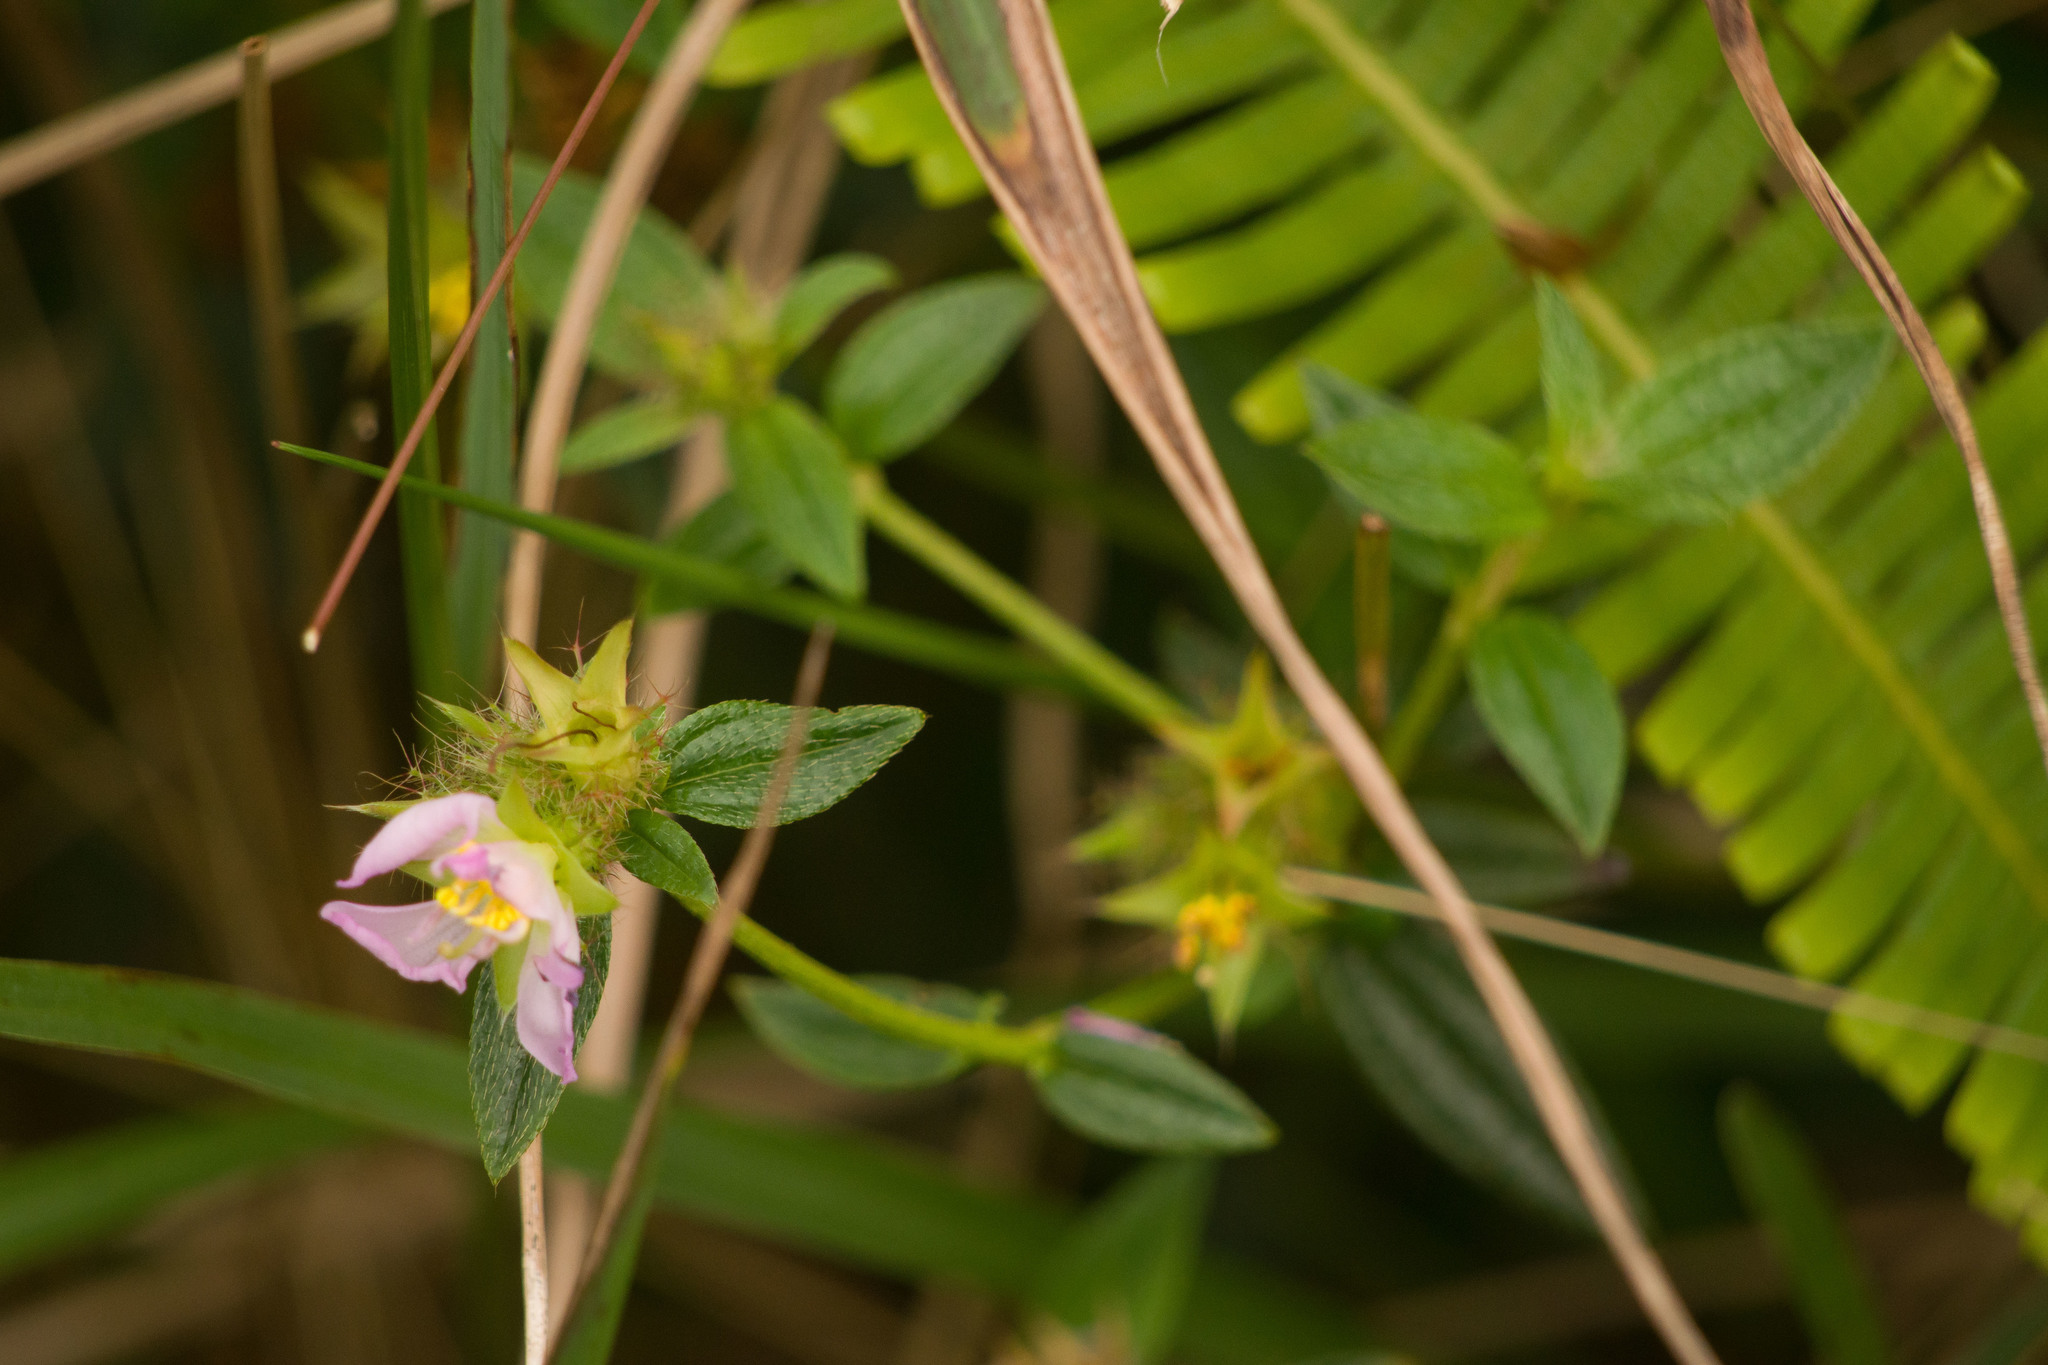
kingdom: Plantae
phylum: Tracheophyta
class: Magnoliopsida
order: Myrtales
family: Melastomataceae
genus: Pterolepis
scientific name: Pterolepis glomerata
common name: False meadowbeauty
